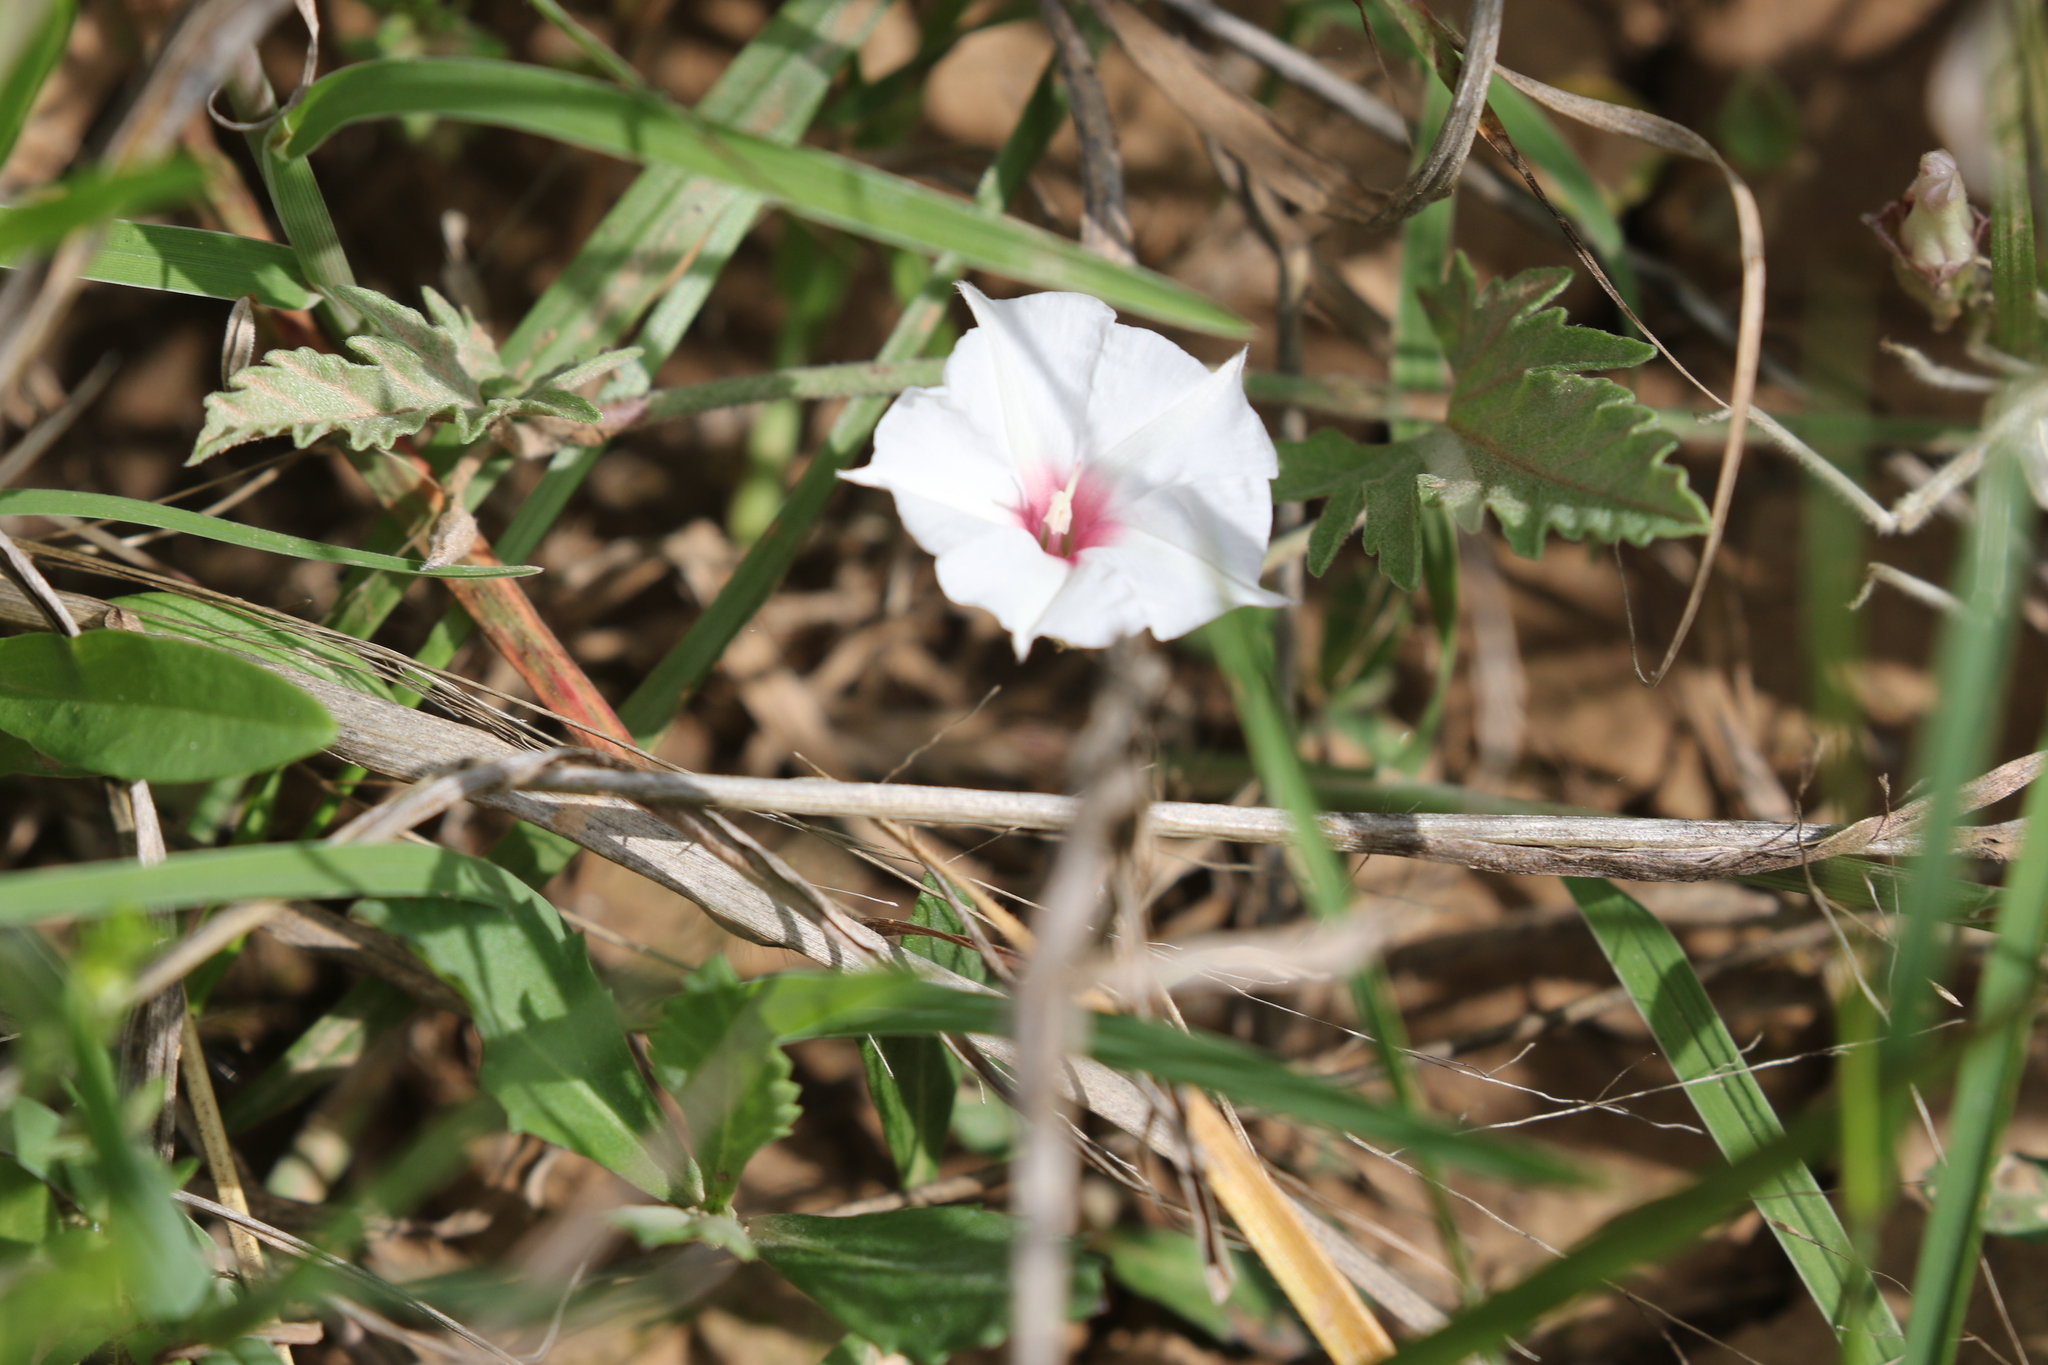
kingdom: Plantae
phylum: Tracheophyta
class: Magnoliopsida
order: Solanales
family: Convolvulaceae
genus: Convolvulus
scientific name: Convolvulus equitans
